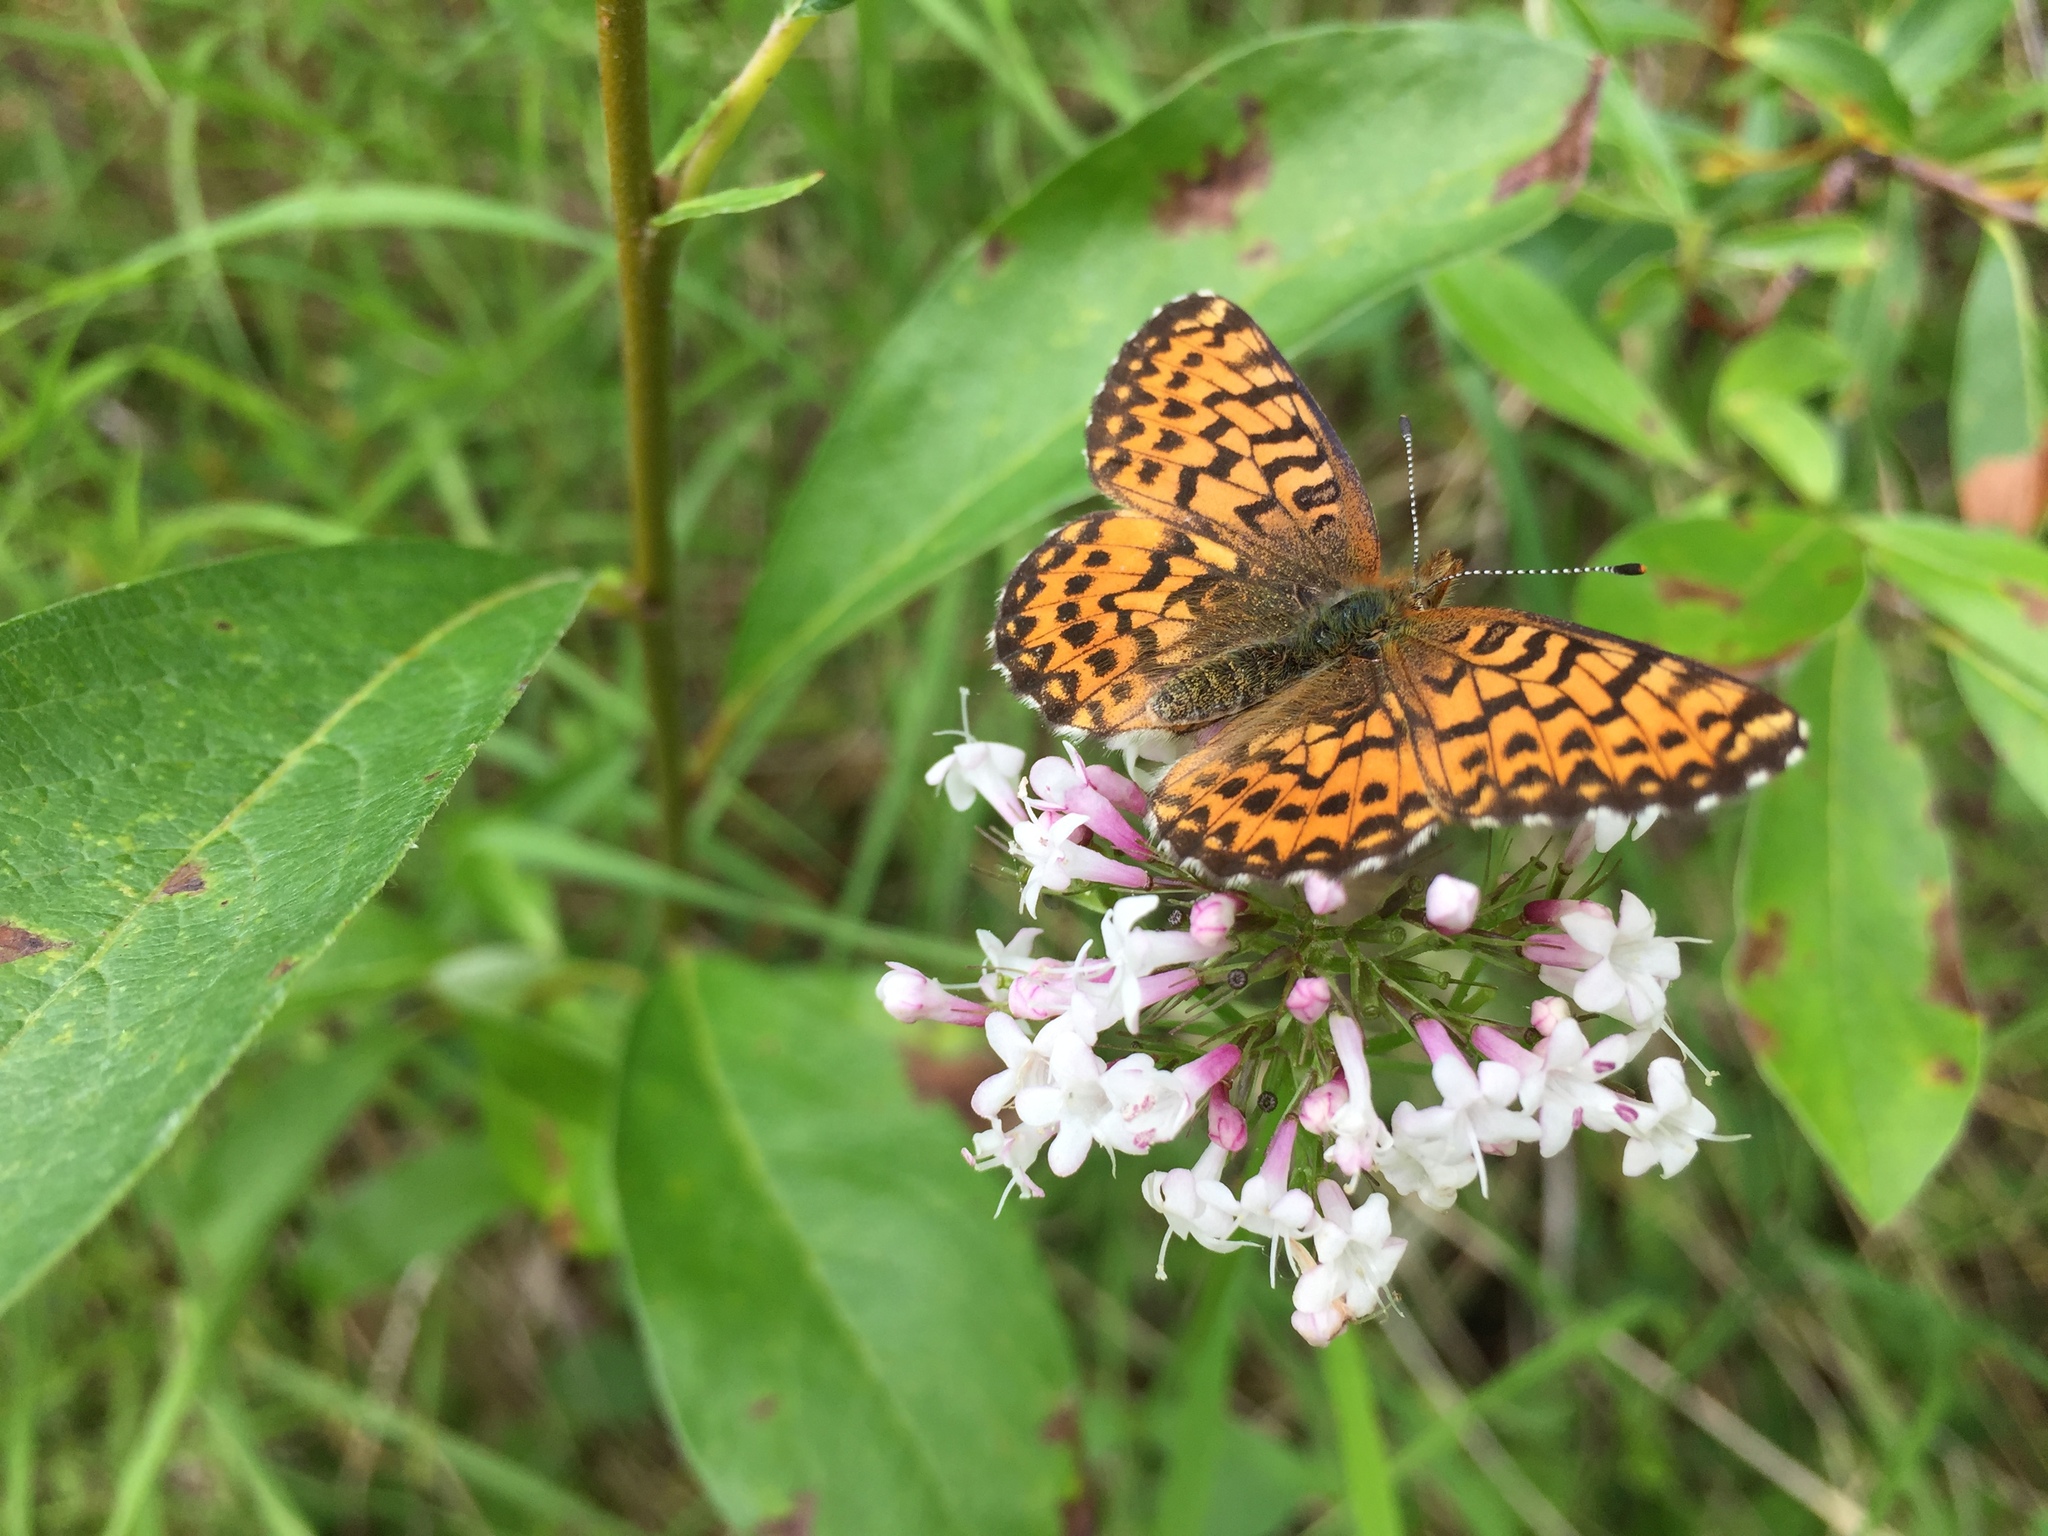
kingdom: Animalia
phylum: Arthropoda
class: Insecta
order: Lepidoptera
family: Nymphalidae
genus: Boloria
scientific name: Boloria chariclea
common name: Arctic fritillary
